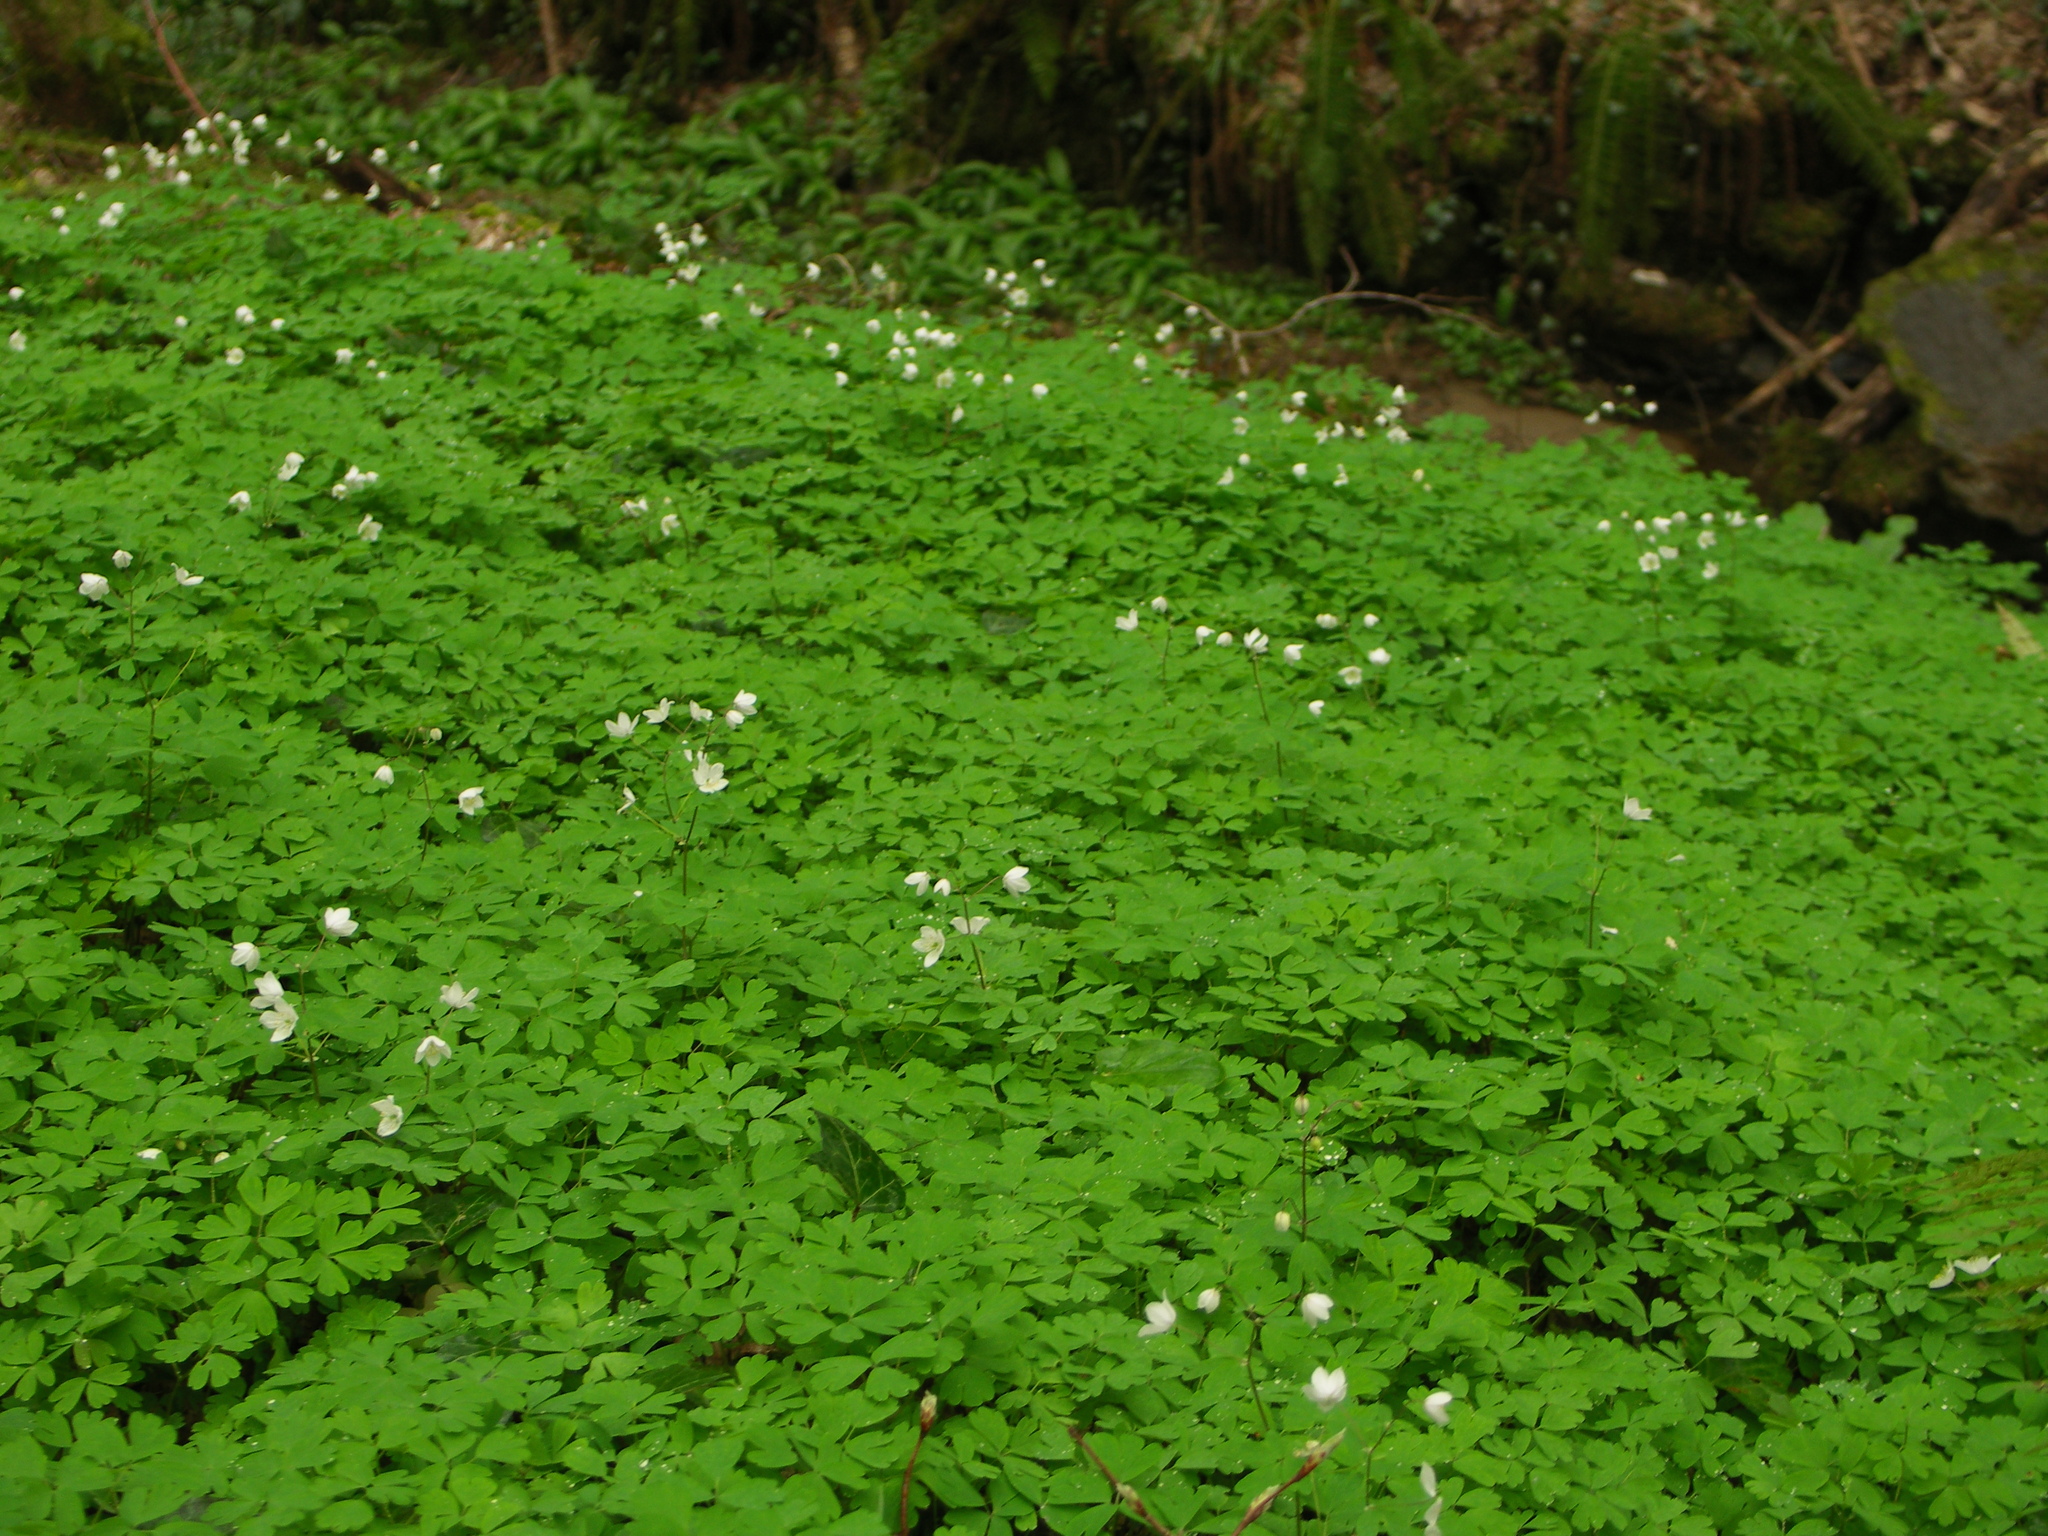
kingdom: Plantae
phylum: Tracheophyta
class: Magnoliopsida
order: Ranunculales
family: Ranunculaceae
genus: Isopyrum
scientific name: Isopyrum thalictroides
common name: Isopyrum
